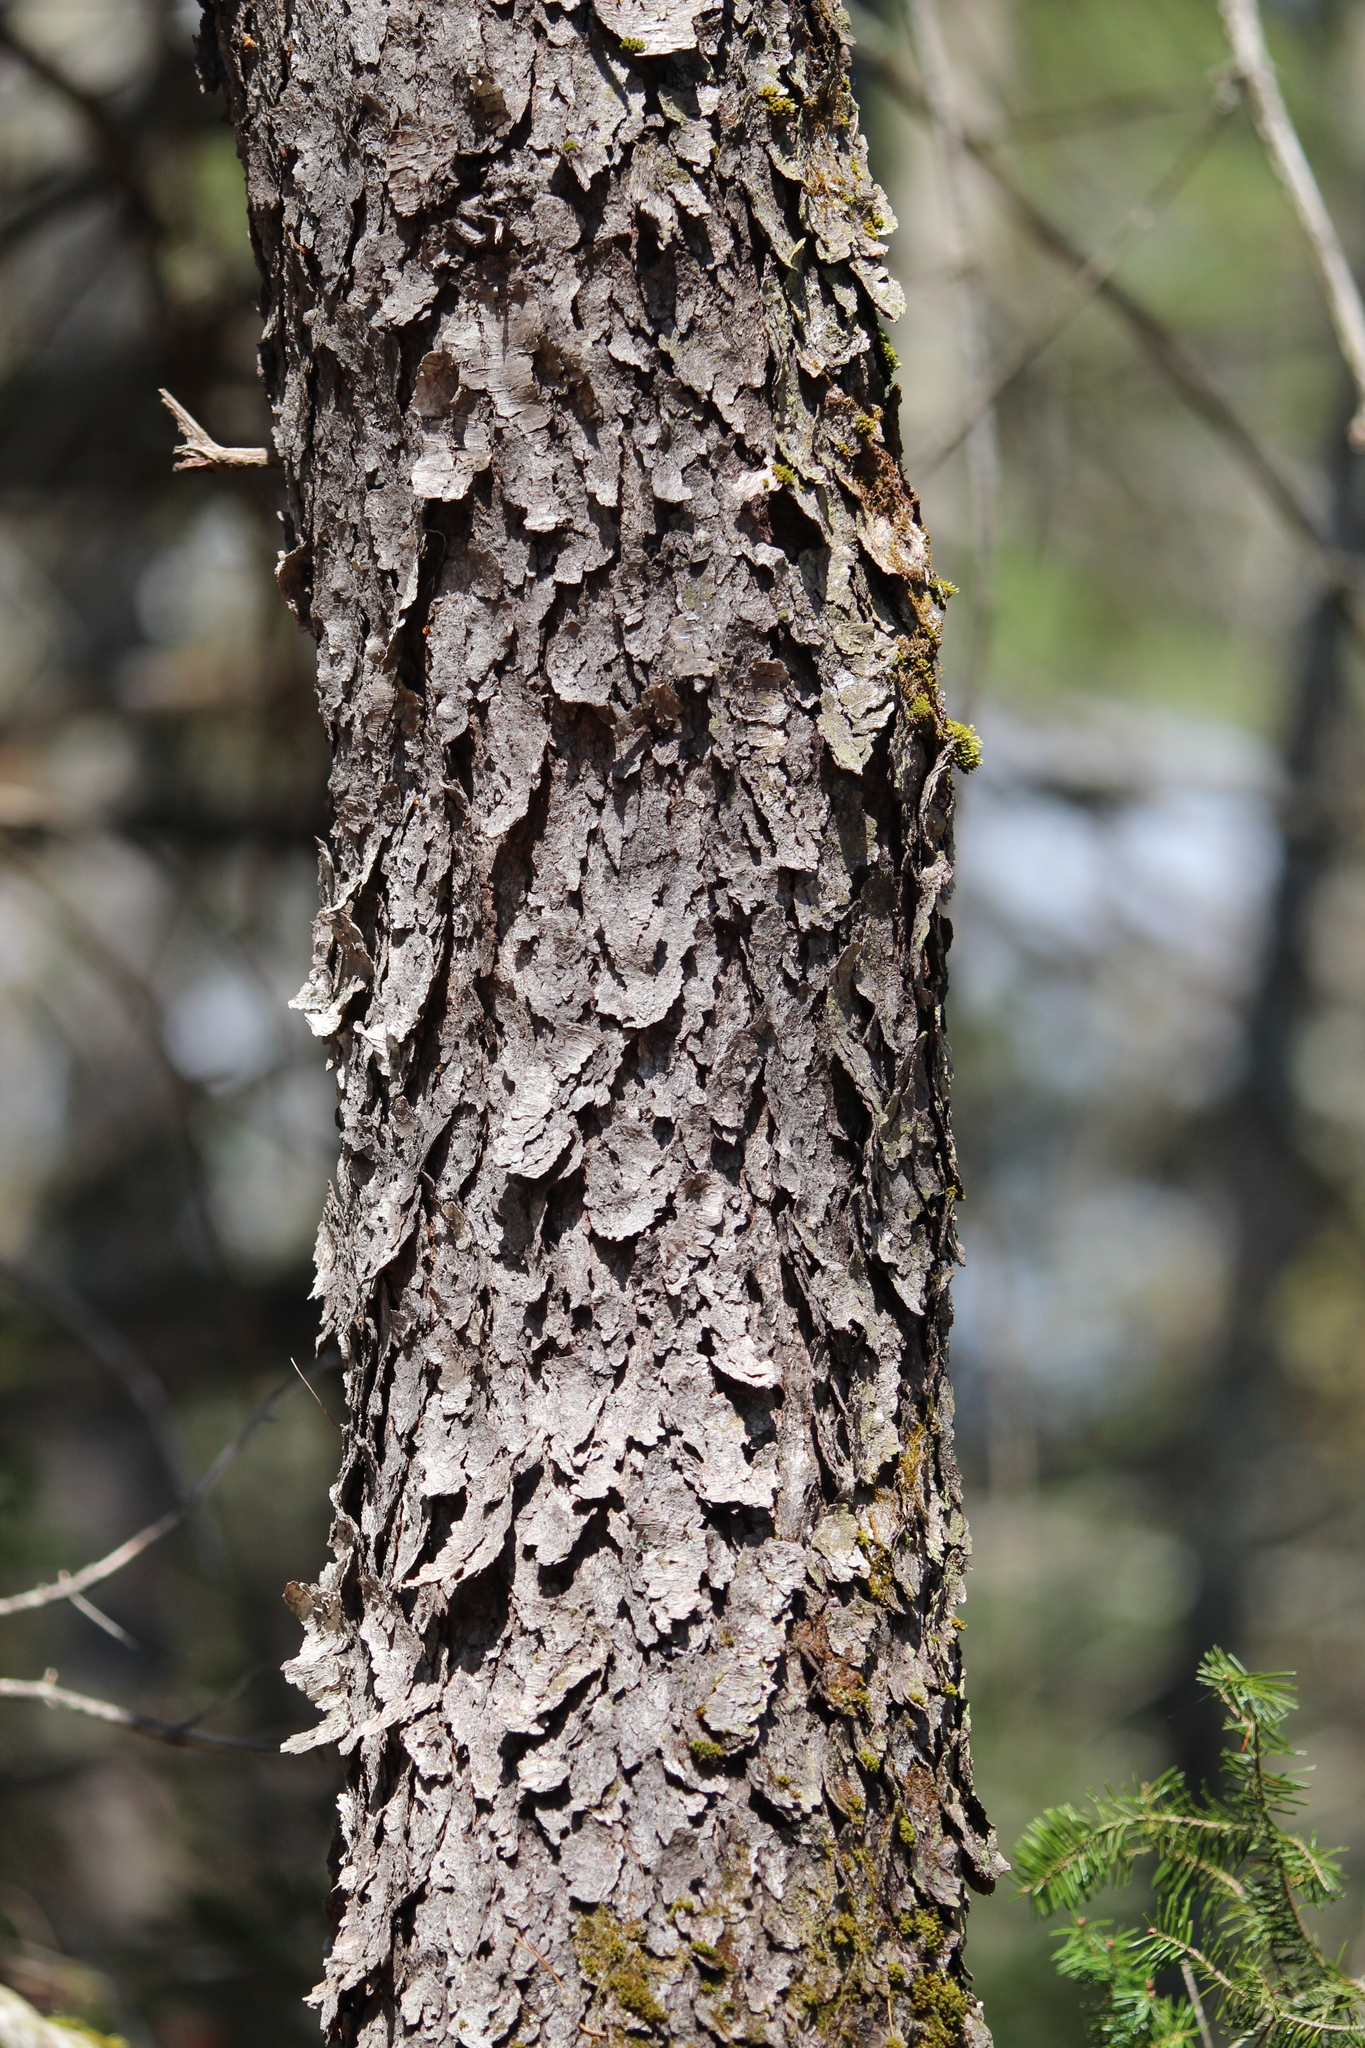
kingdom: Plantae
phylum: Tracheophyta
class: Magnoliopsida
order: Rosales
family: Rosaceae
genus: Prunus
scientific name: Prunus serotina
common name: Black cherry
